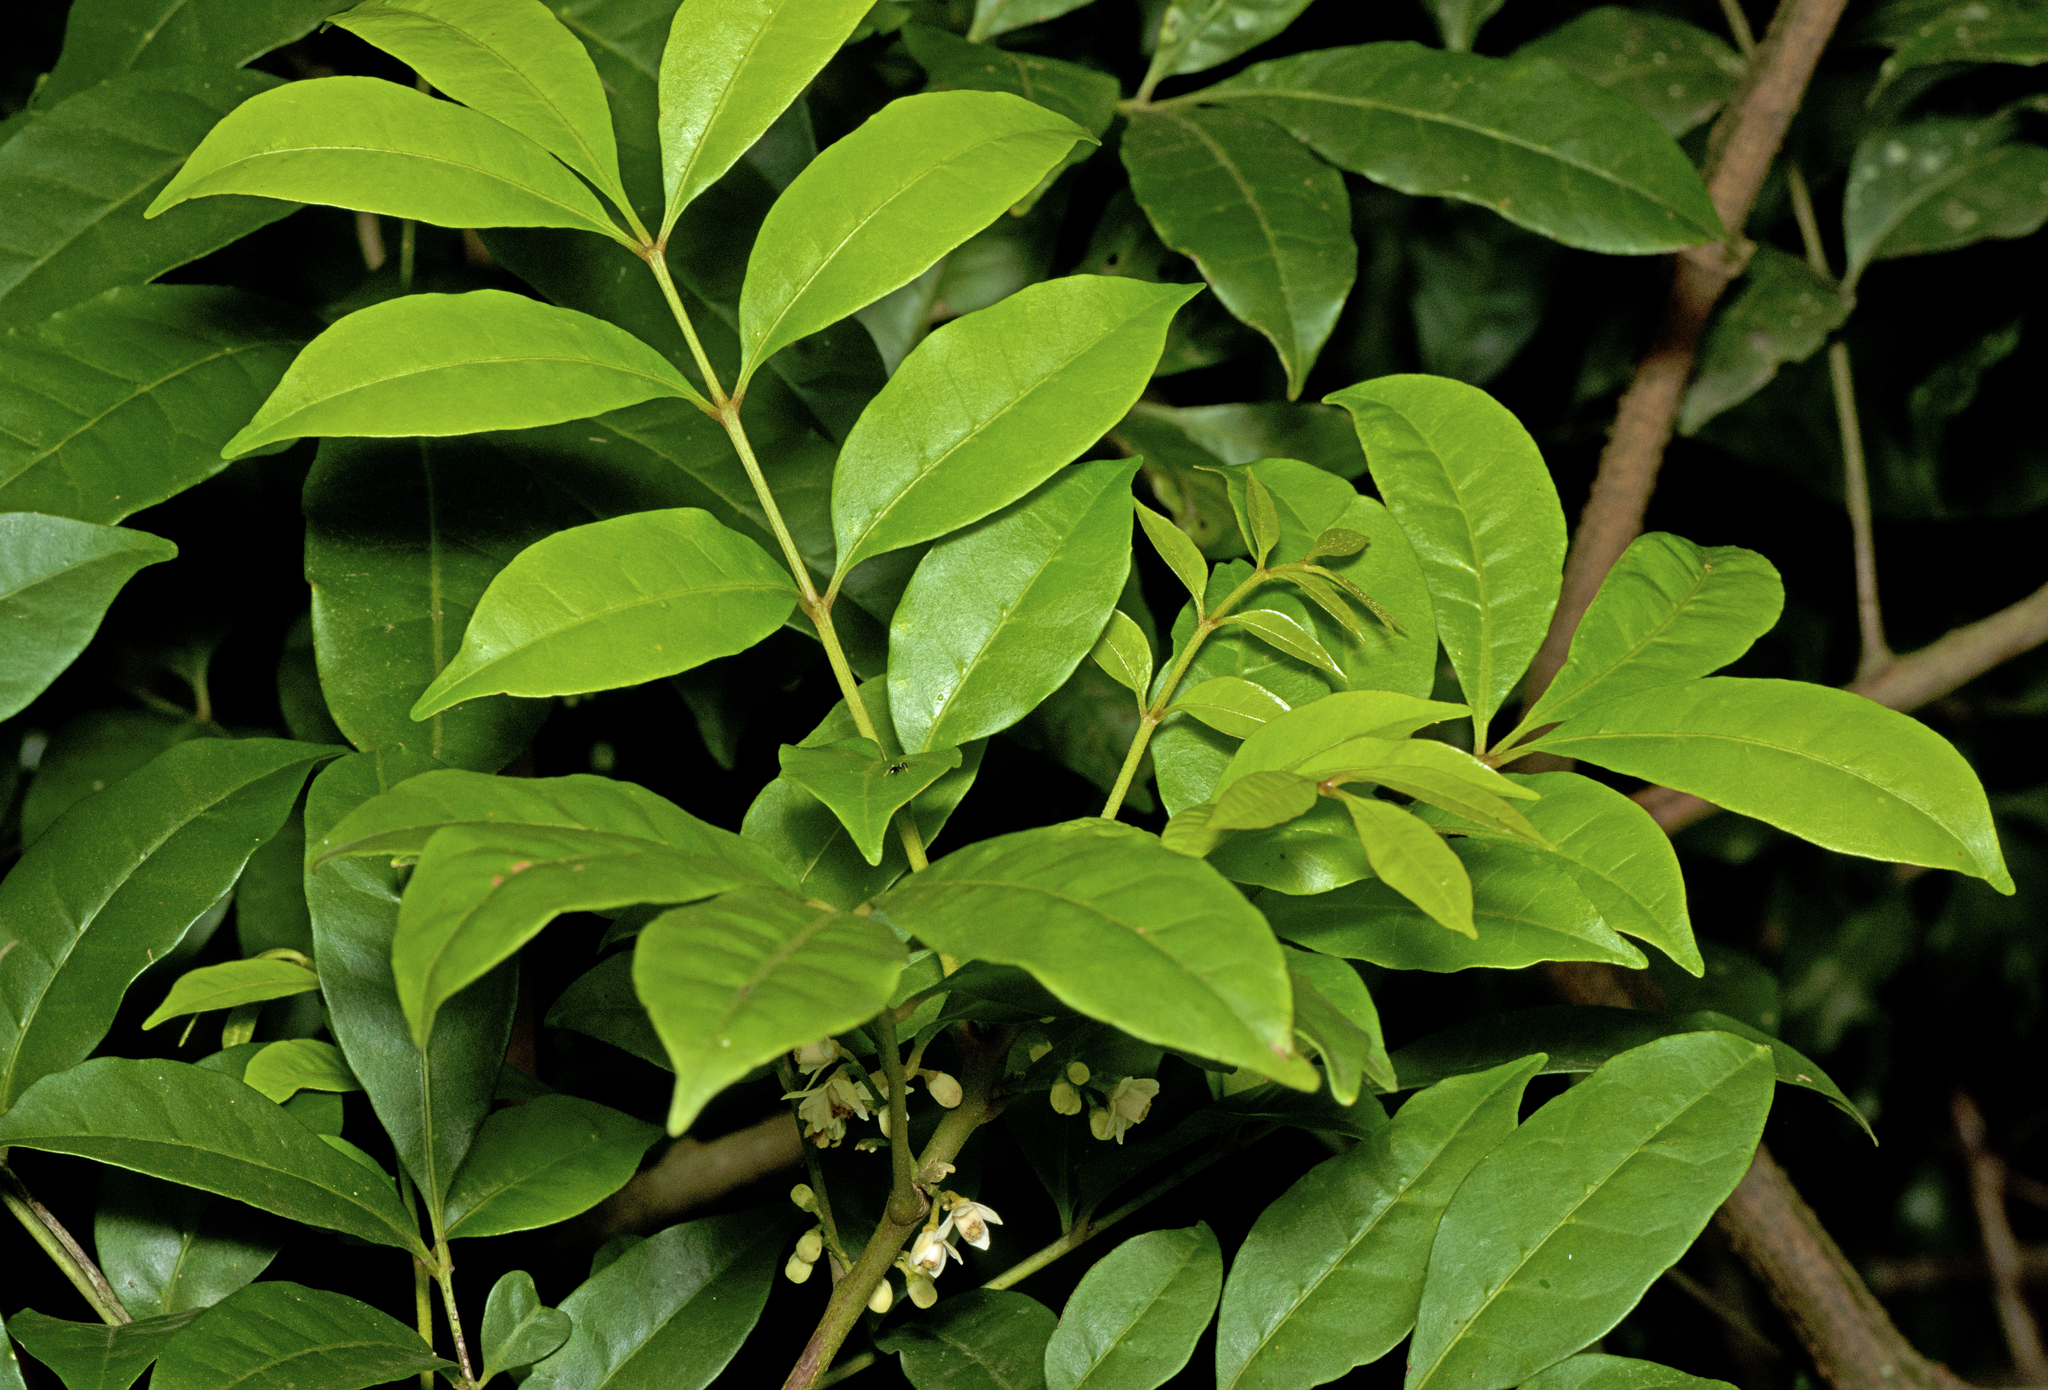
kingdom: Plantae
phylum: Tracheophyta
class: Magnoliopsida
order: Sapindales
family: Meliaceae
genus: Synoum
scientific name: Synoum glandulosum
